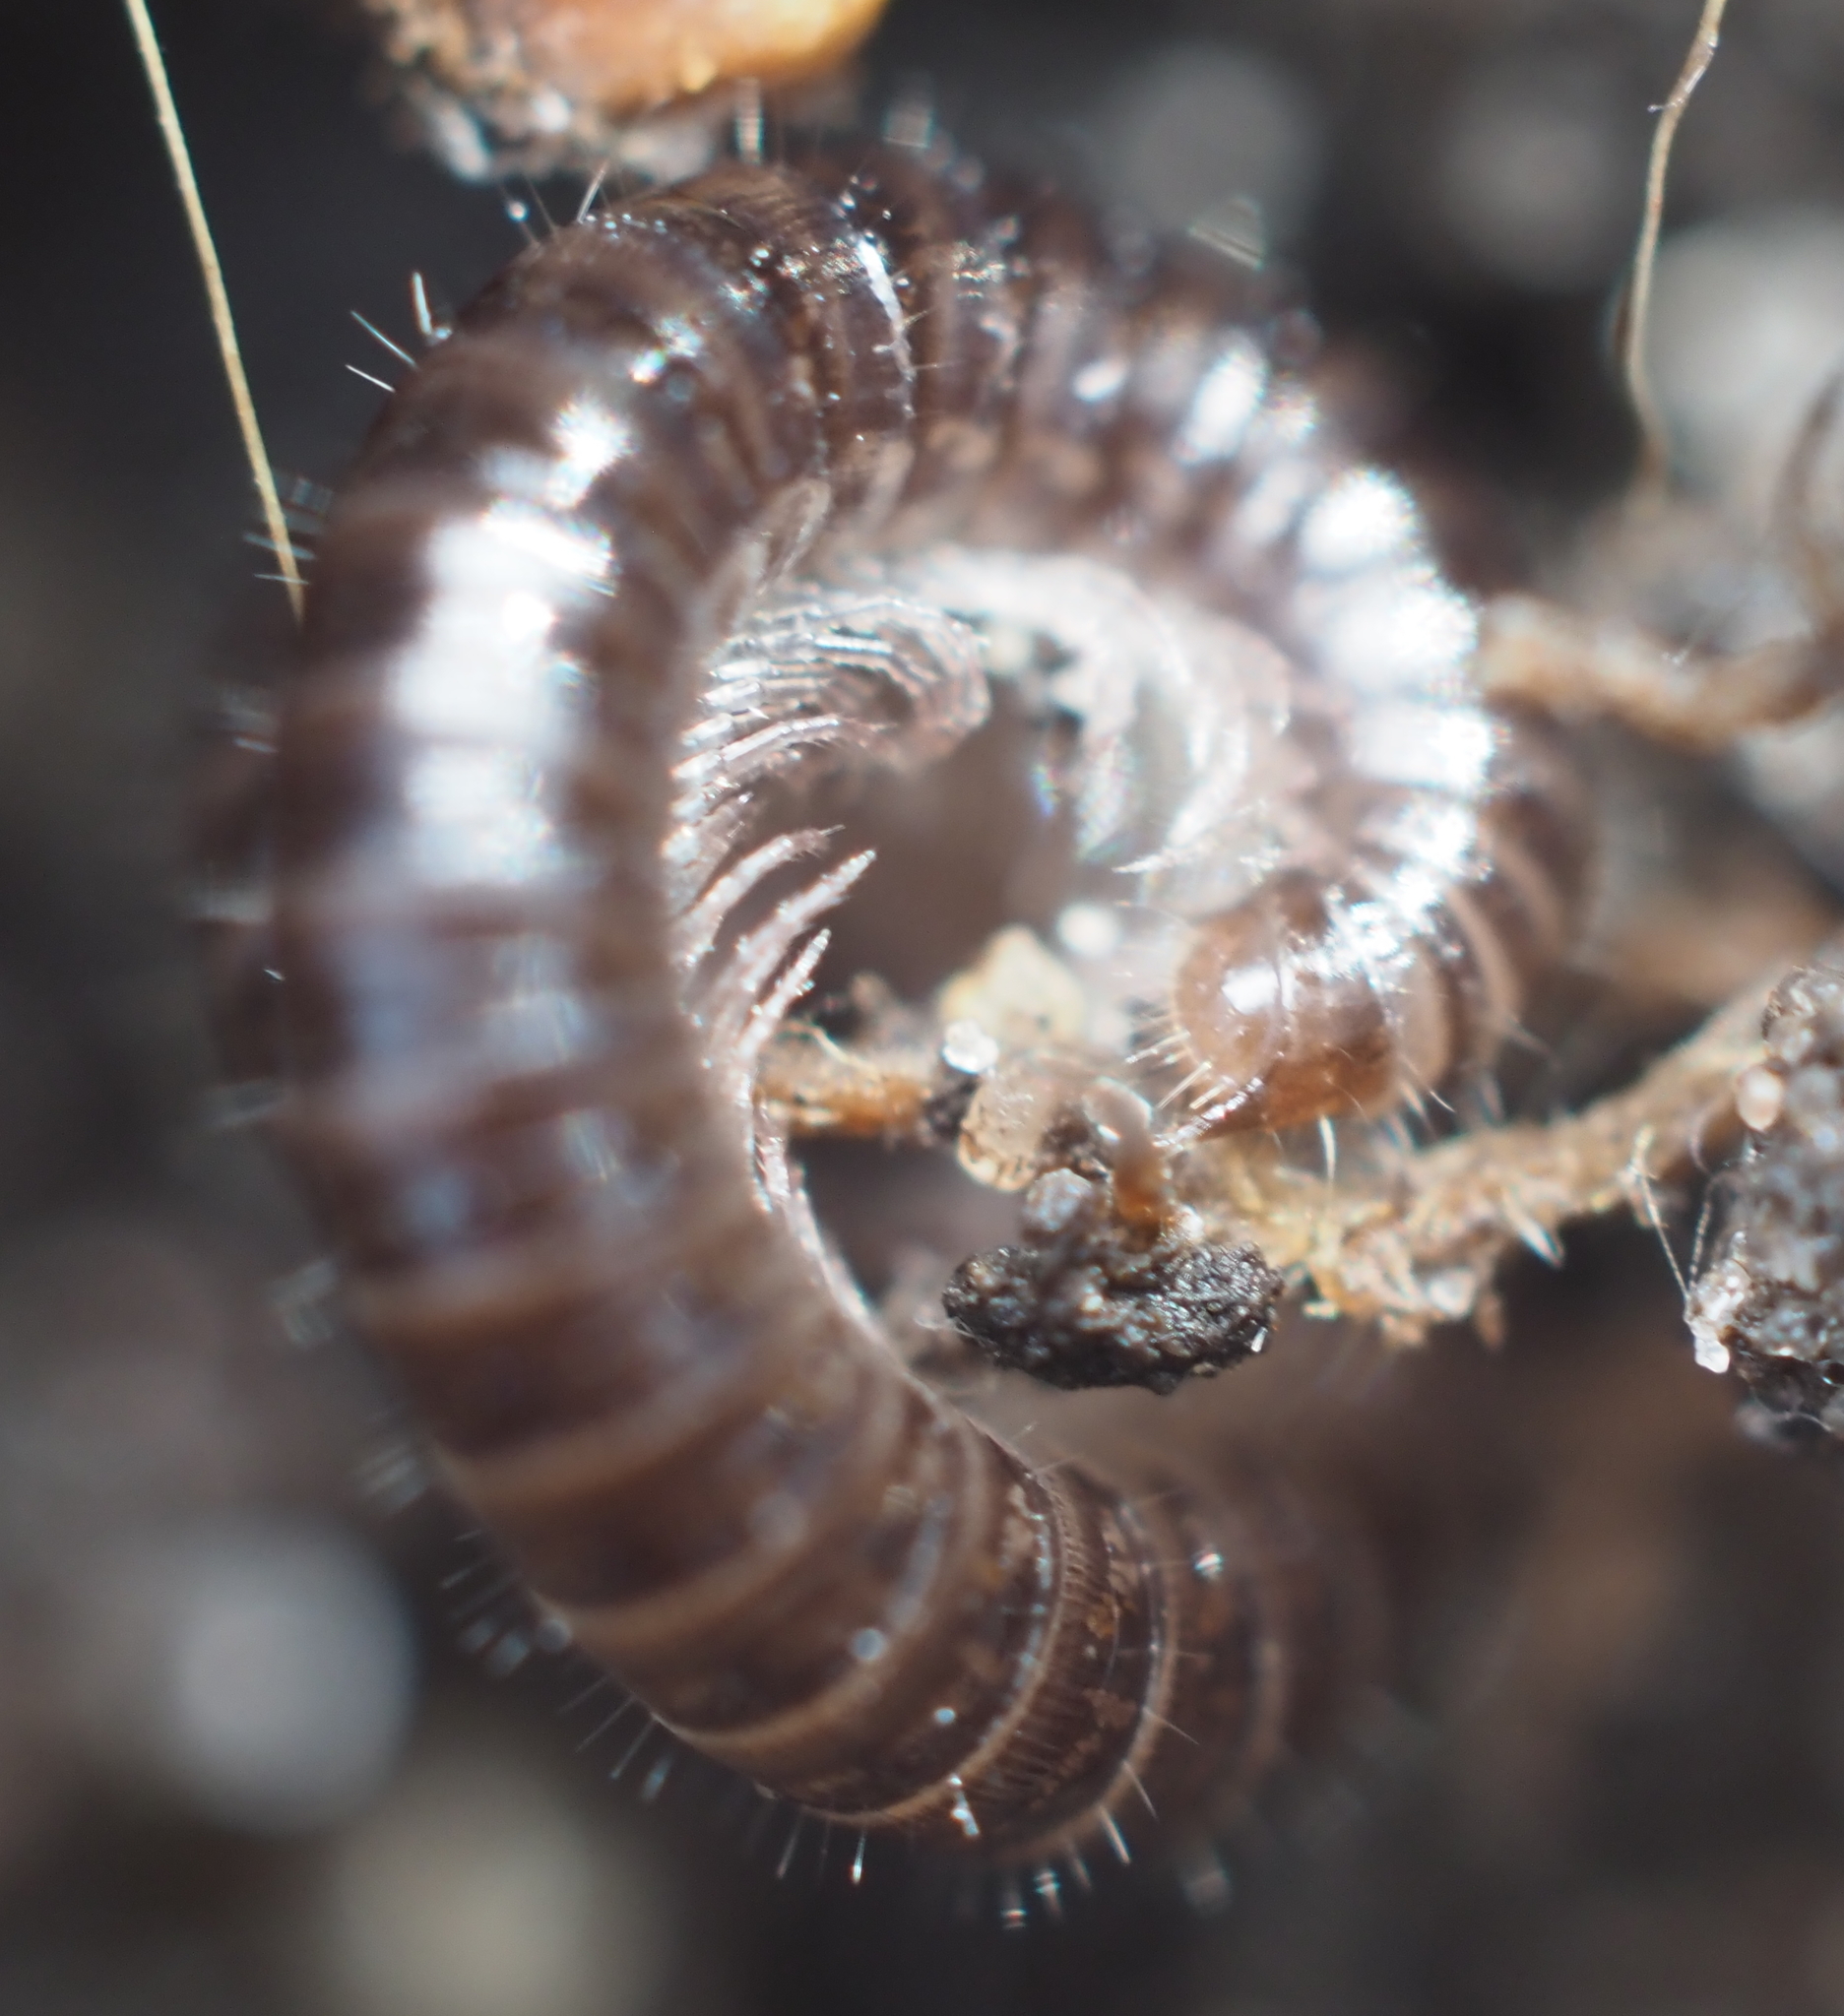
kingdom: Animalia
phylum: Arthropoda
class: Diplopoda
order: Julida
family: Julidae
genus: Ophyiulus
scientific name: Ophyiulus pilosus
